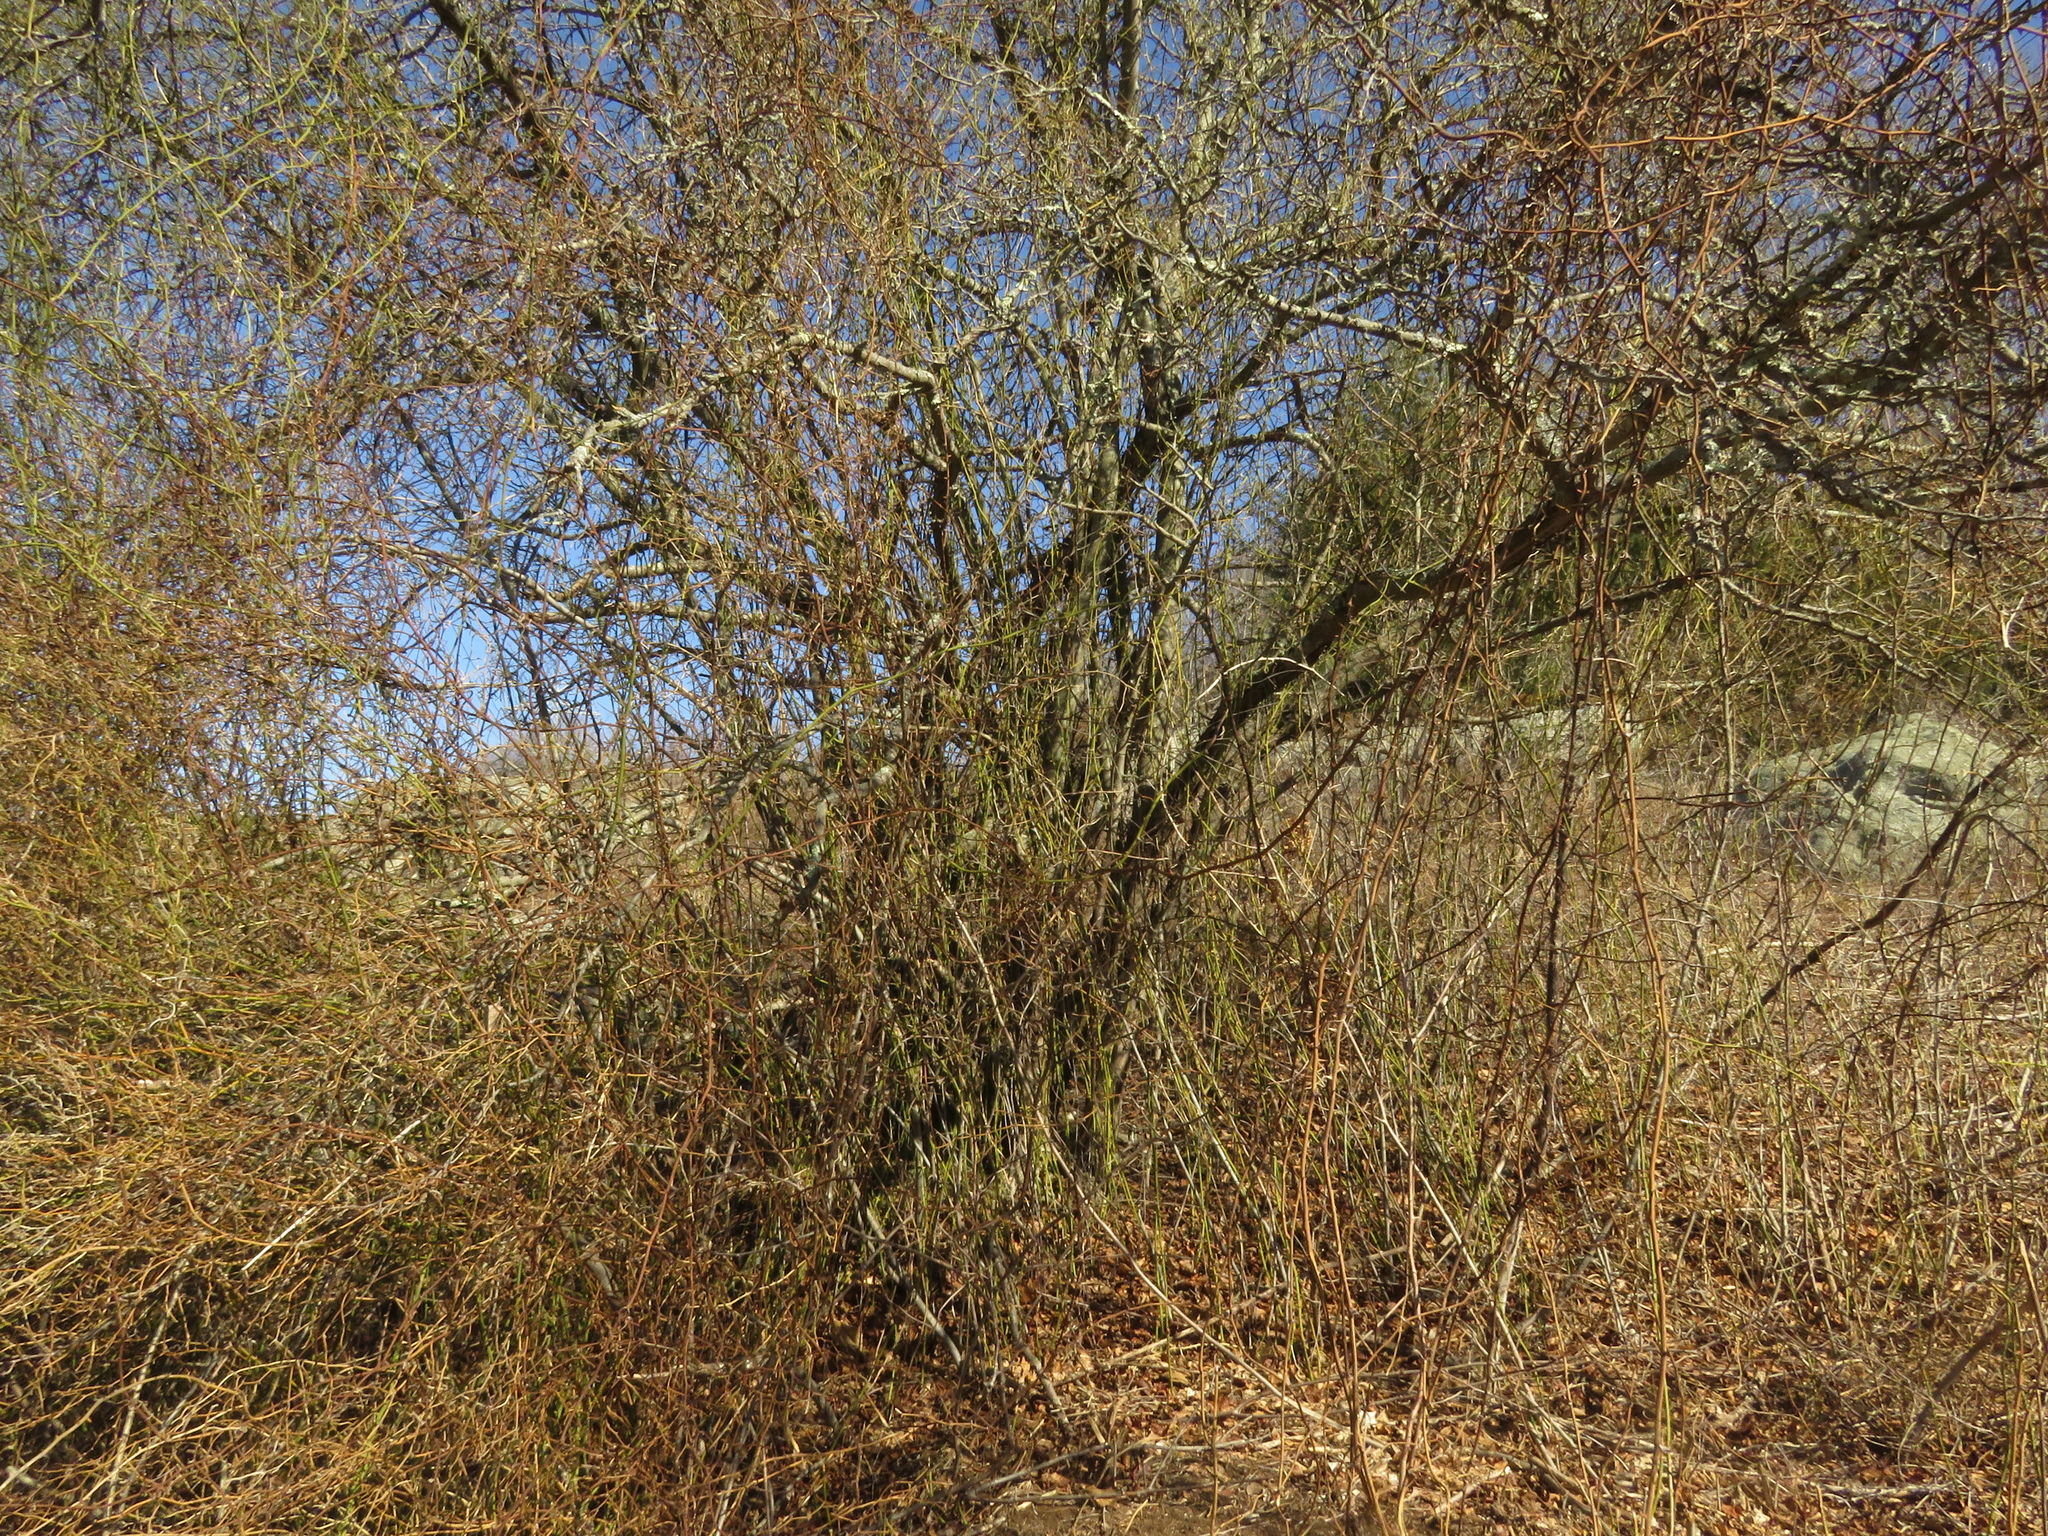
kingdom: Plantae
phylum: Tracheophyta
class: Liliopsida
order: Liliales
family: Smilacaceae
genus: Smilax
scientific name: Smilax rotundifolia
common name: Bullbriar
